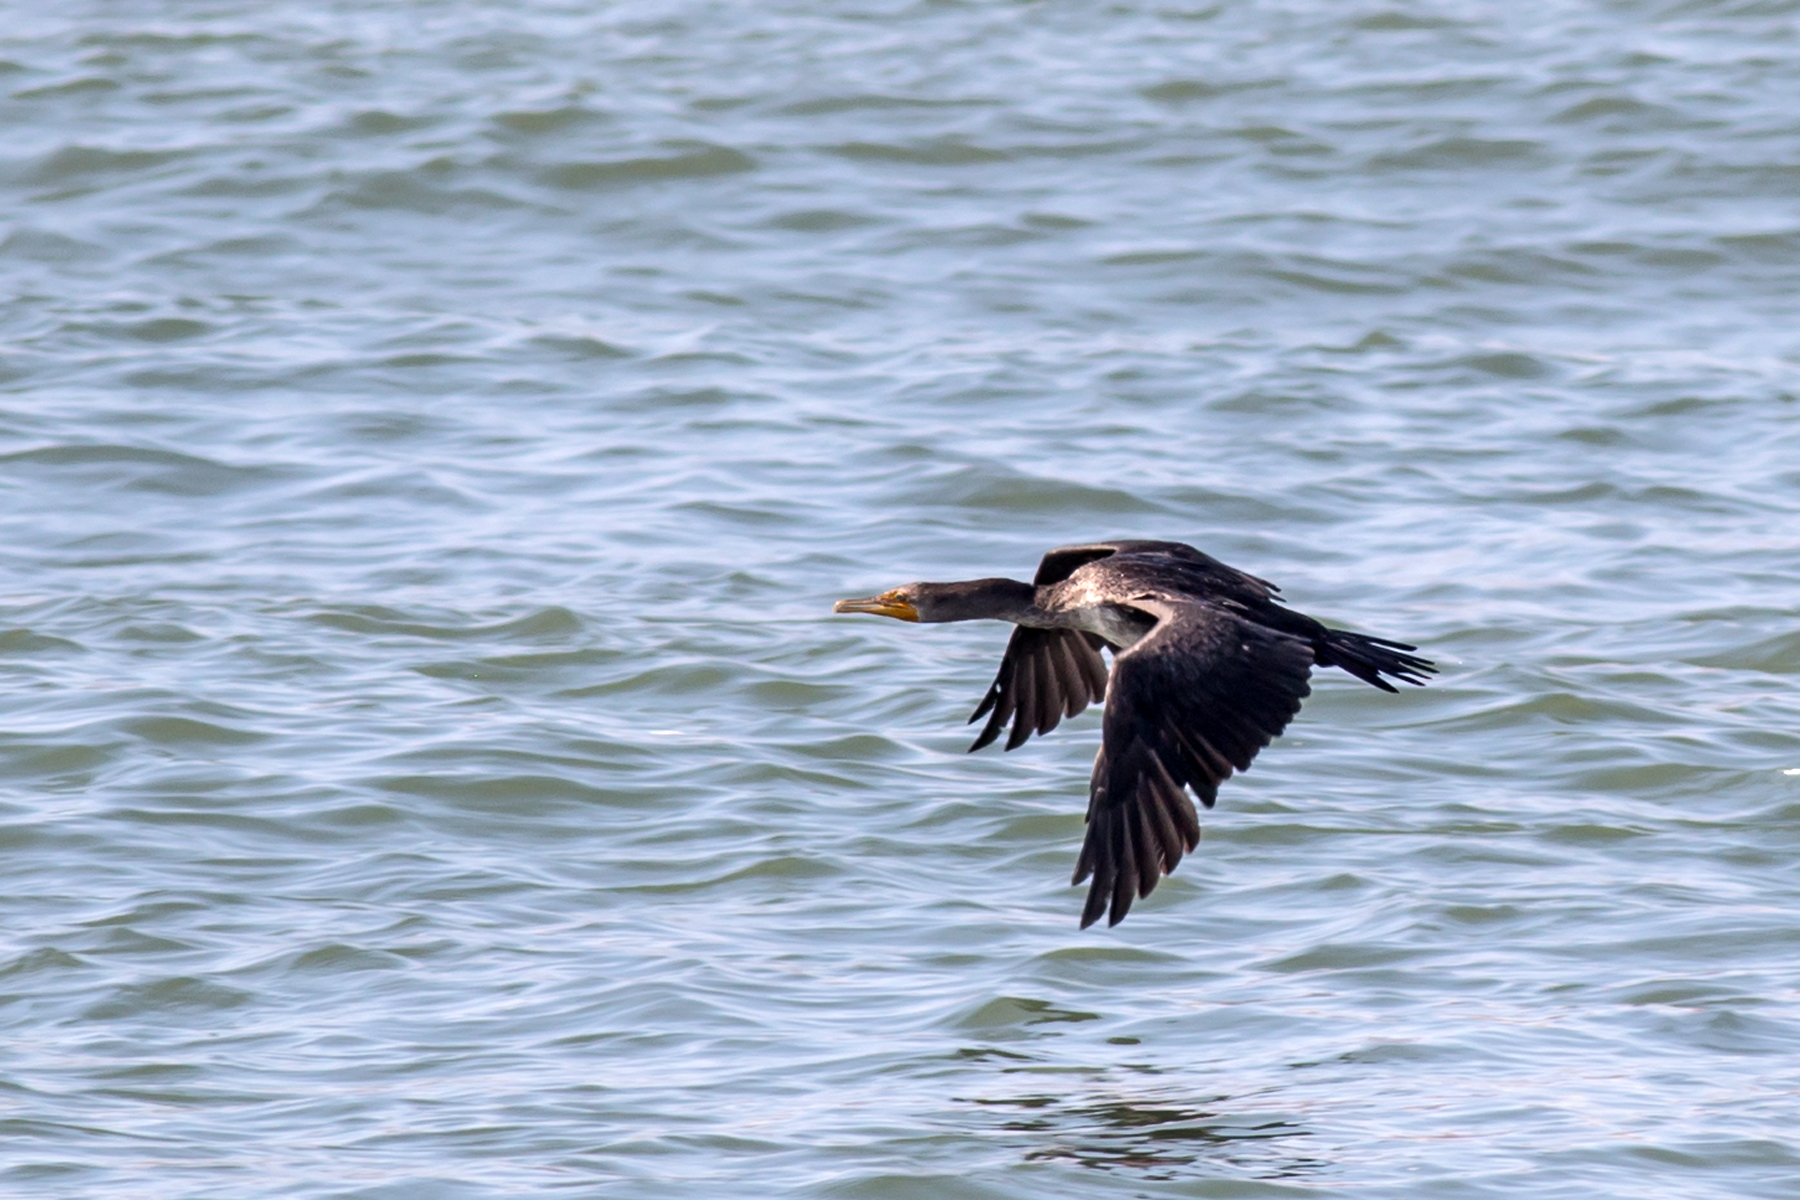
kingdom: Animalia
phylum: Chordata
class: Aves
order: Suliformes
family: Phalacrocoracidae
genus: Phalacrocorax
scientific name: Phalacrocorax auritus
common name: Double-crested cormorant
